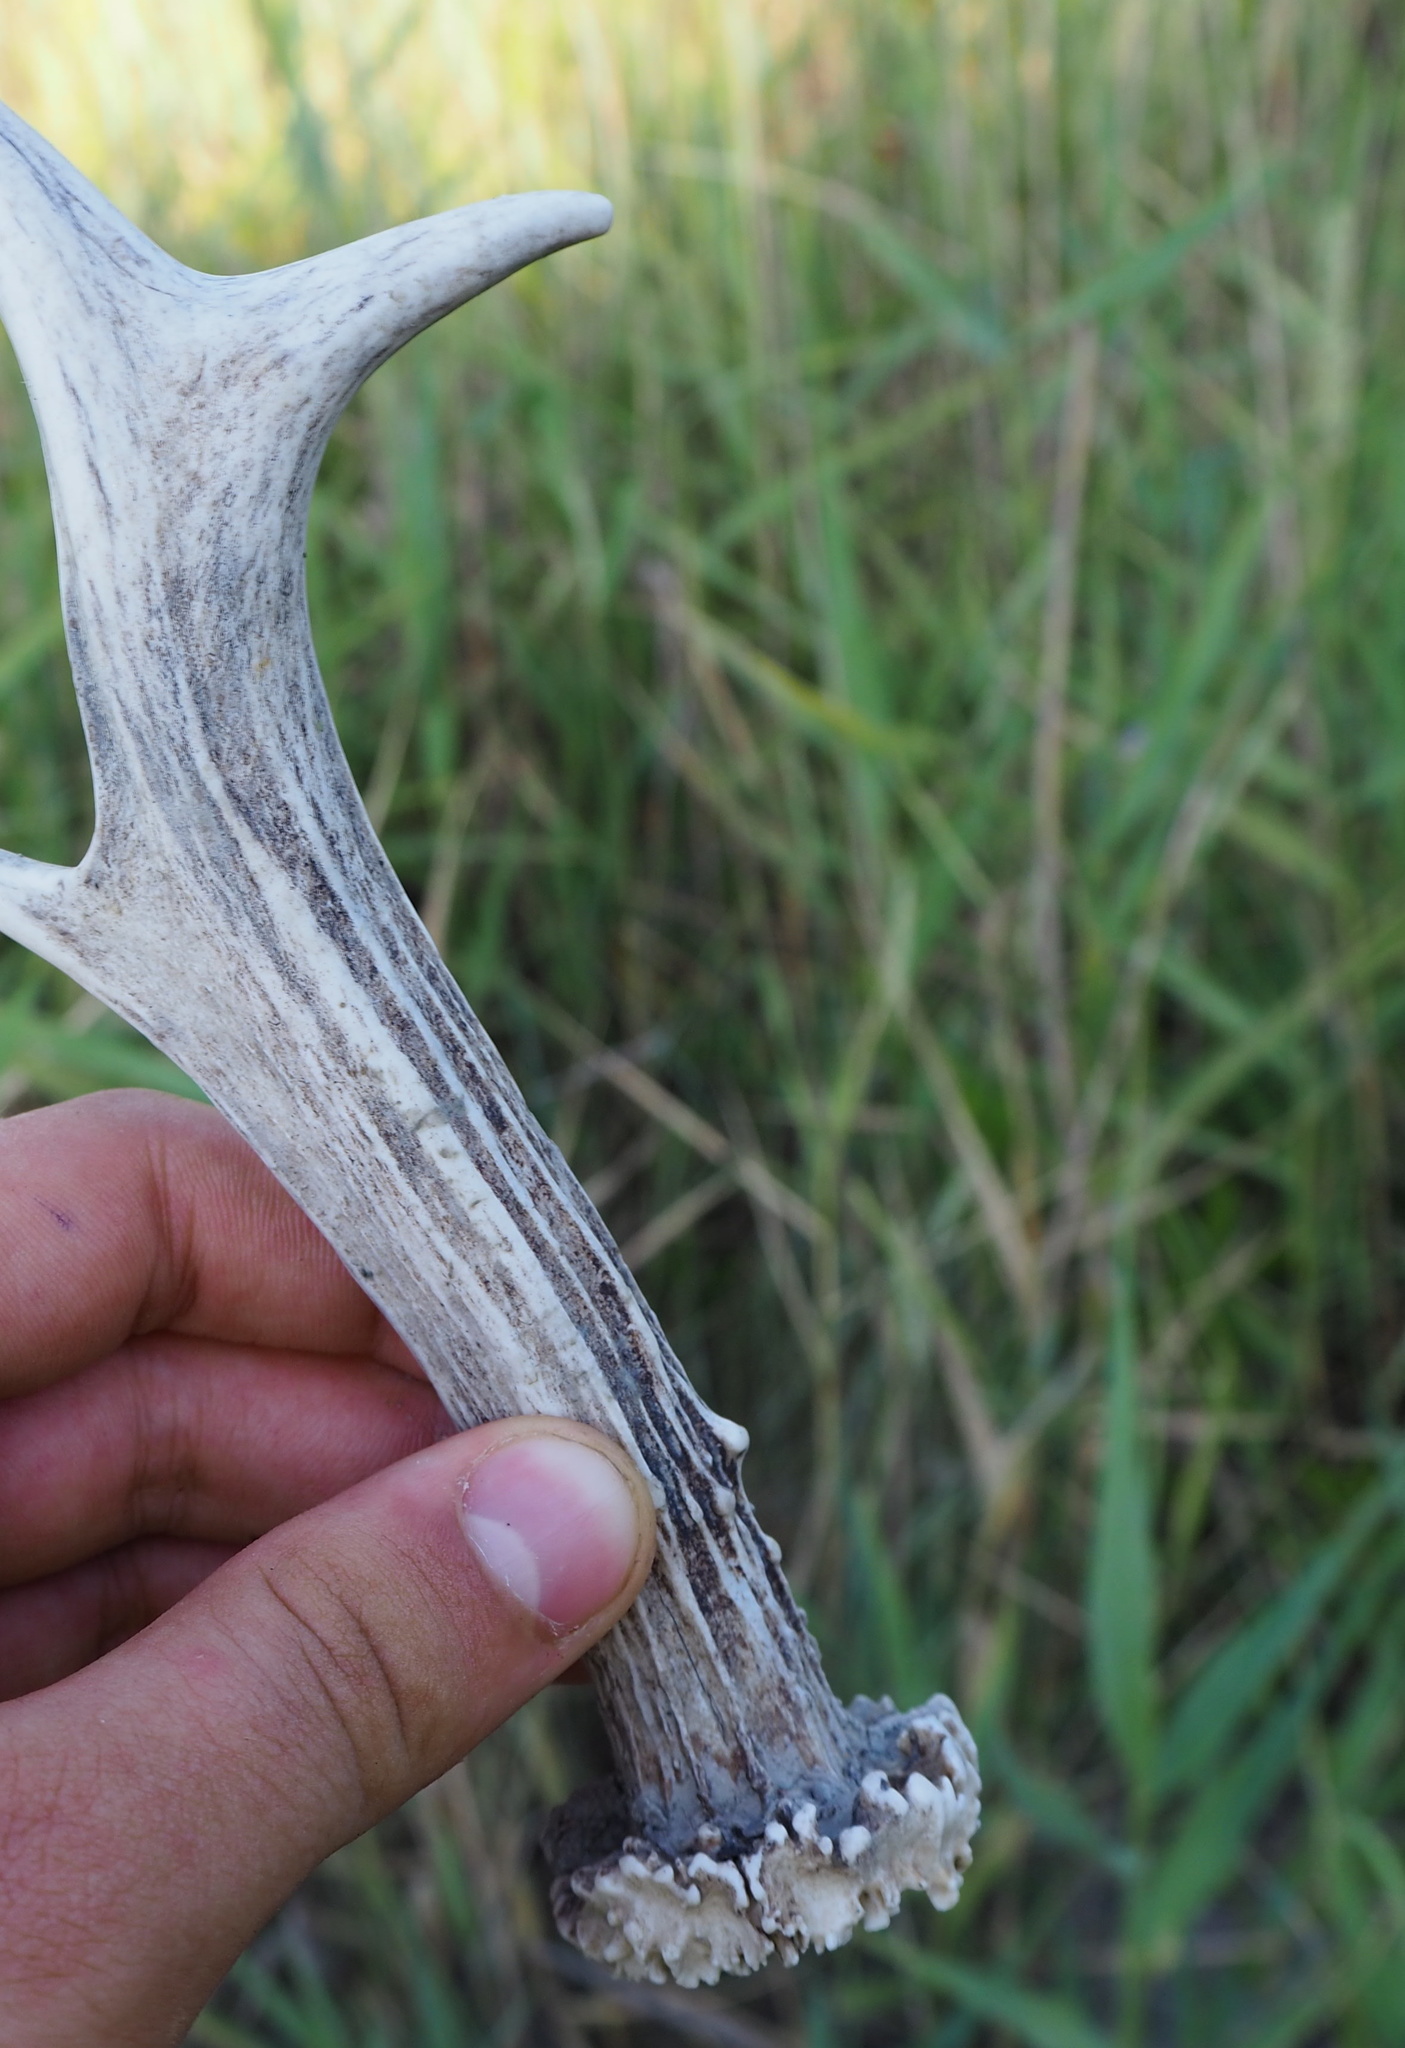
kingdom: Animalia
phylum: Chordata
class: Mammalia
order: Artiodactyla
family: Cervidae
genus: Capreolus
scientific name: Capreolus capreolus
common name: Western roe deer
